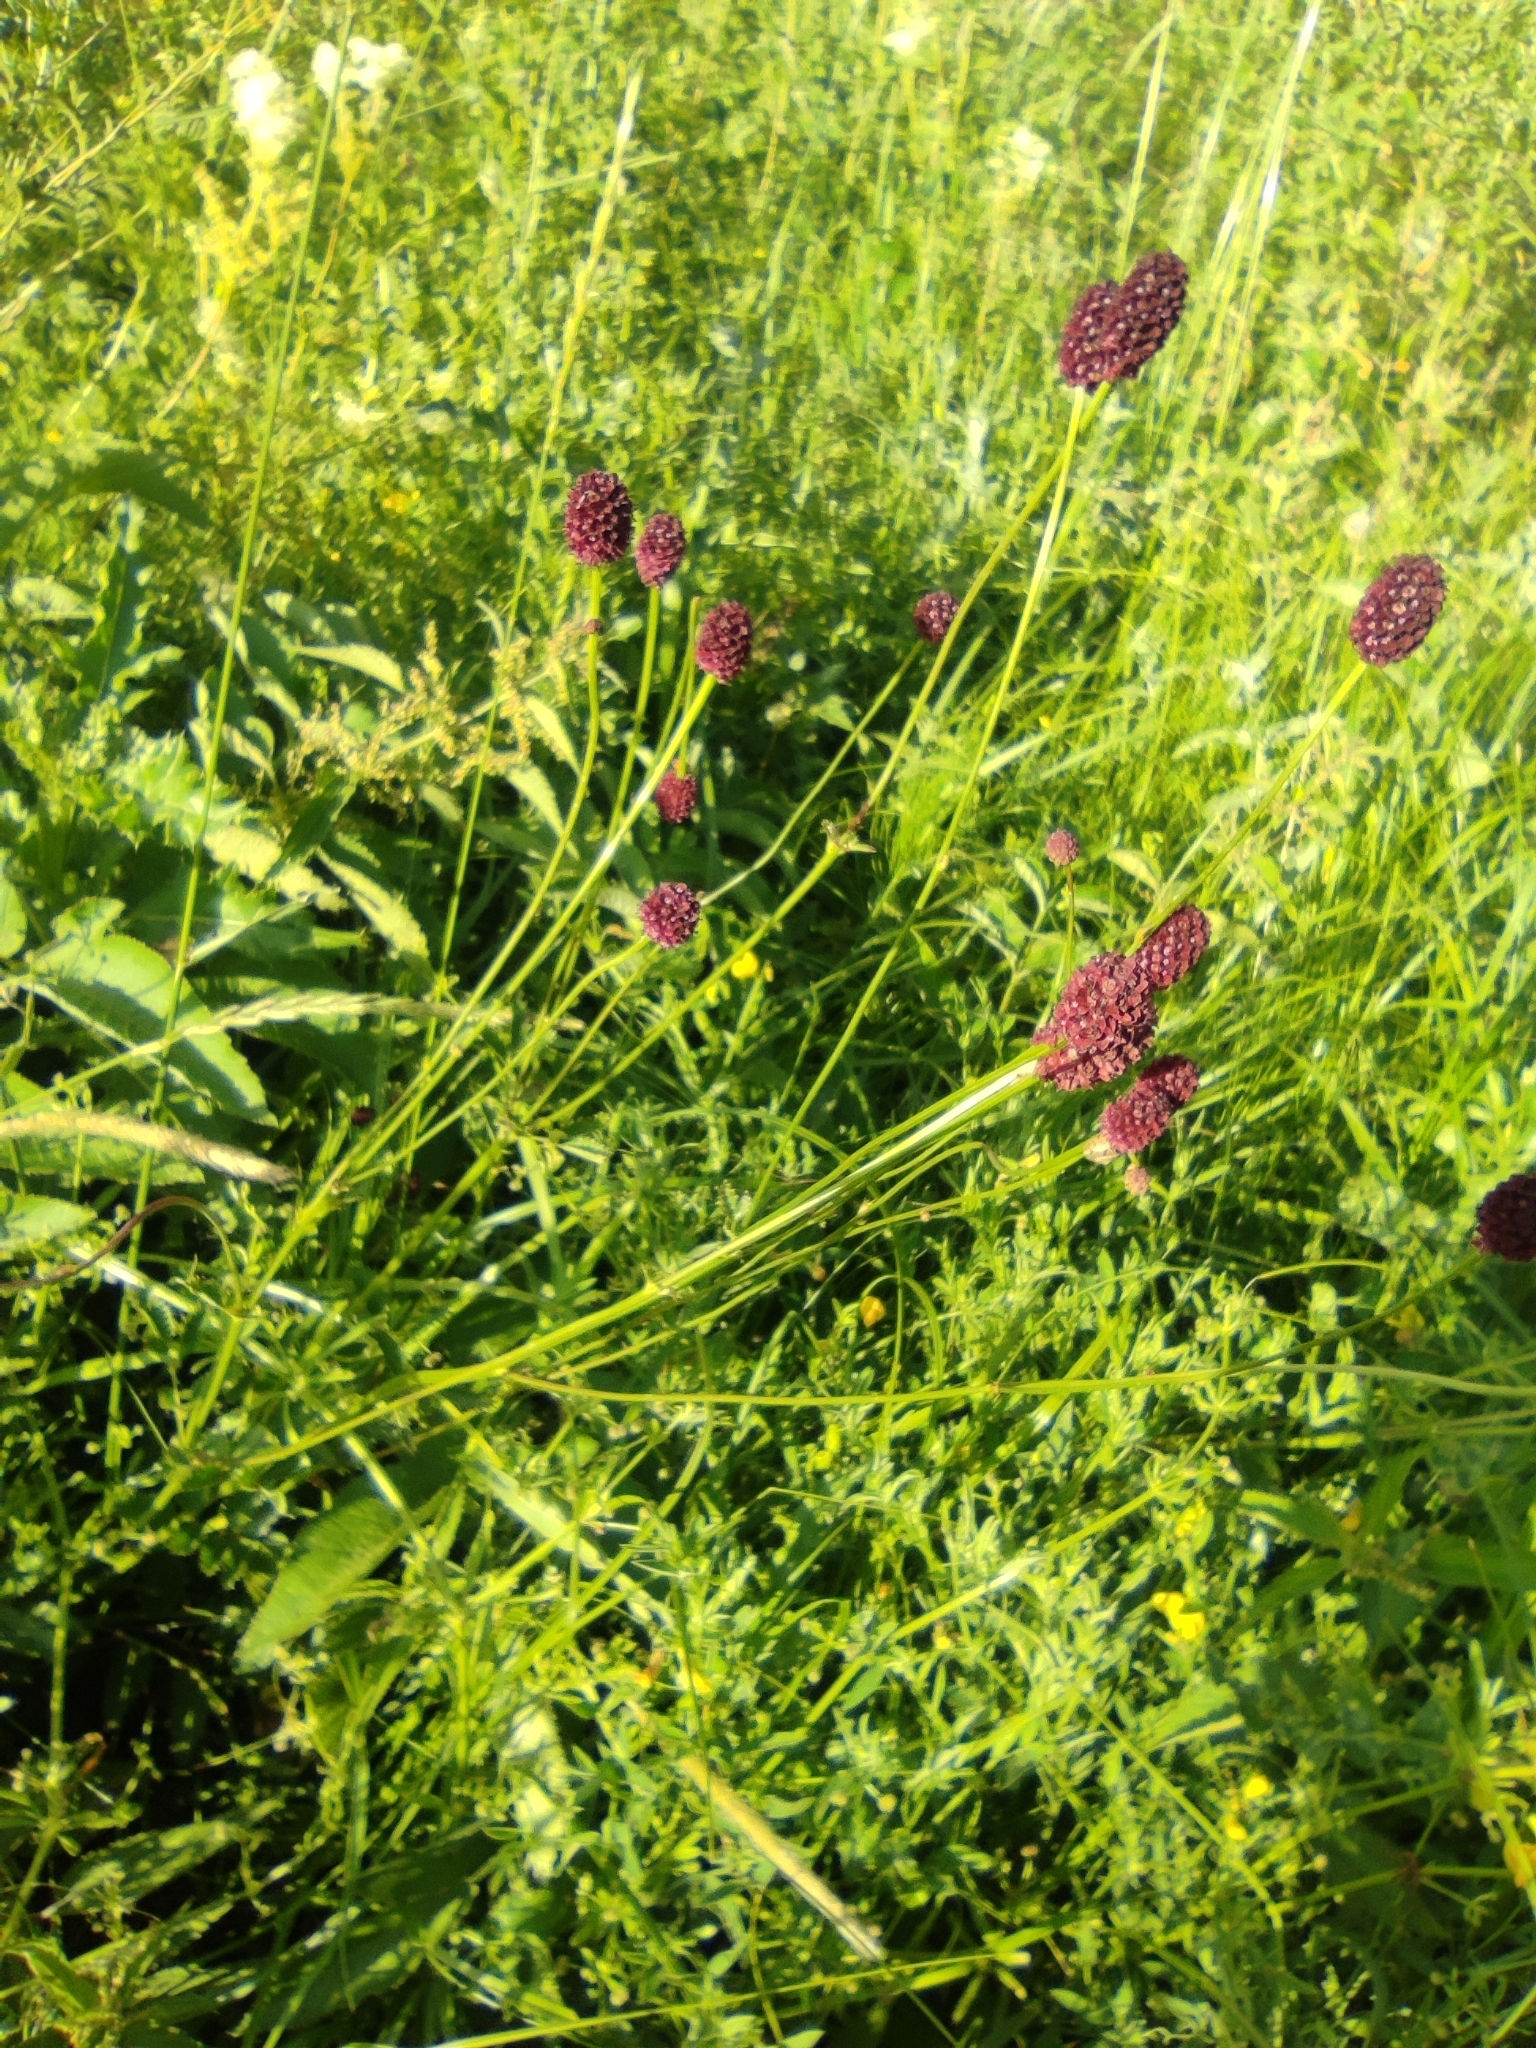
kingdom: Plantae
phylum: Tracheophyta
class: Magnoliopsida
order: Rosales
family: Rosaceae
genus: Sanguisorba
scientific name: Sanguisorba officinalis
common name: Great burnet
